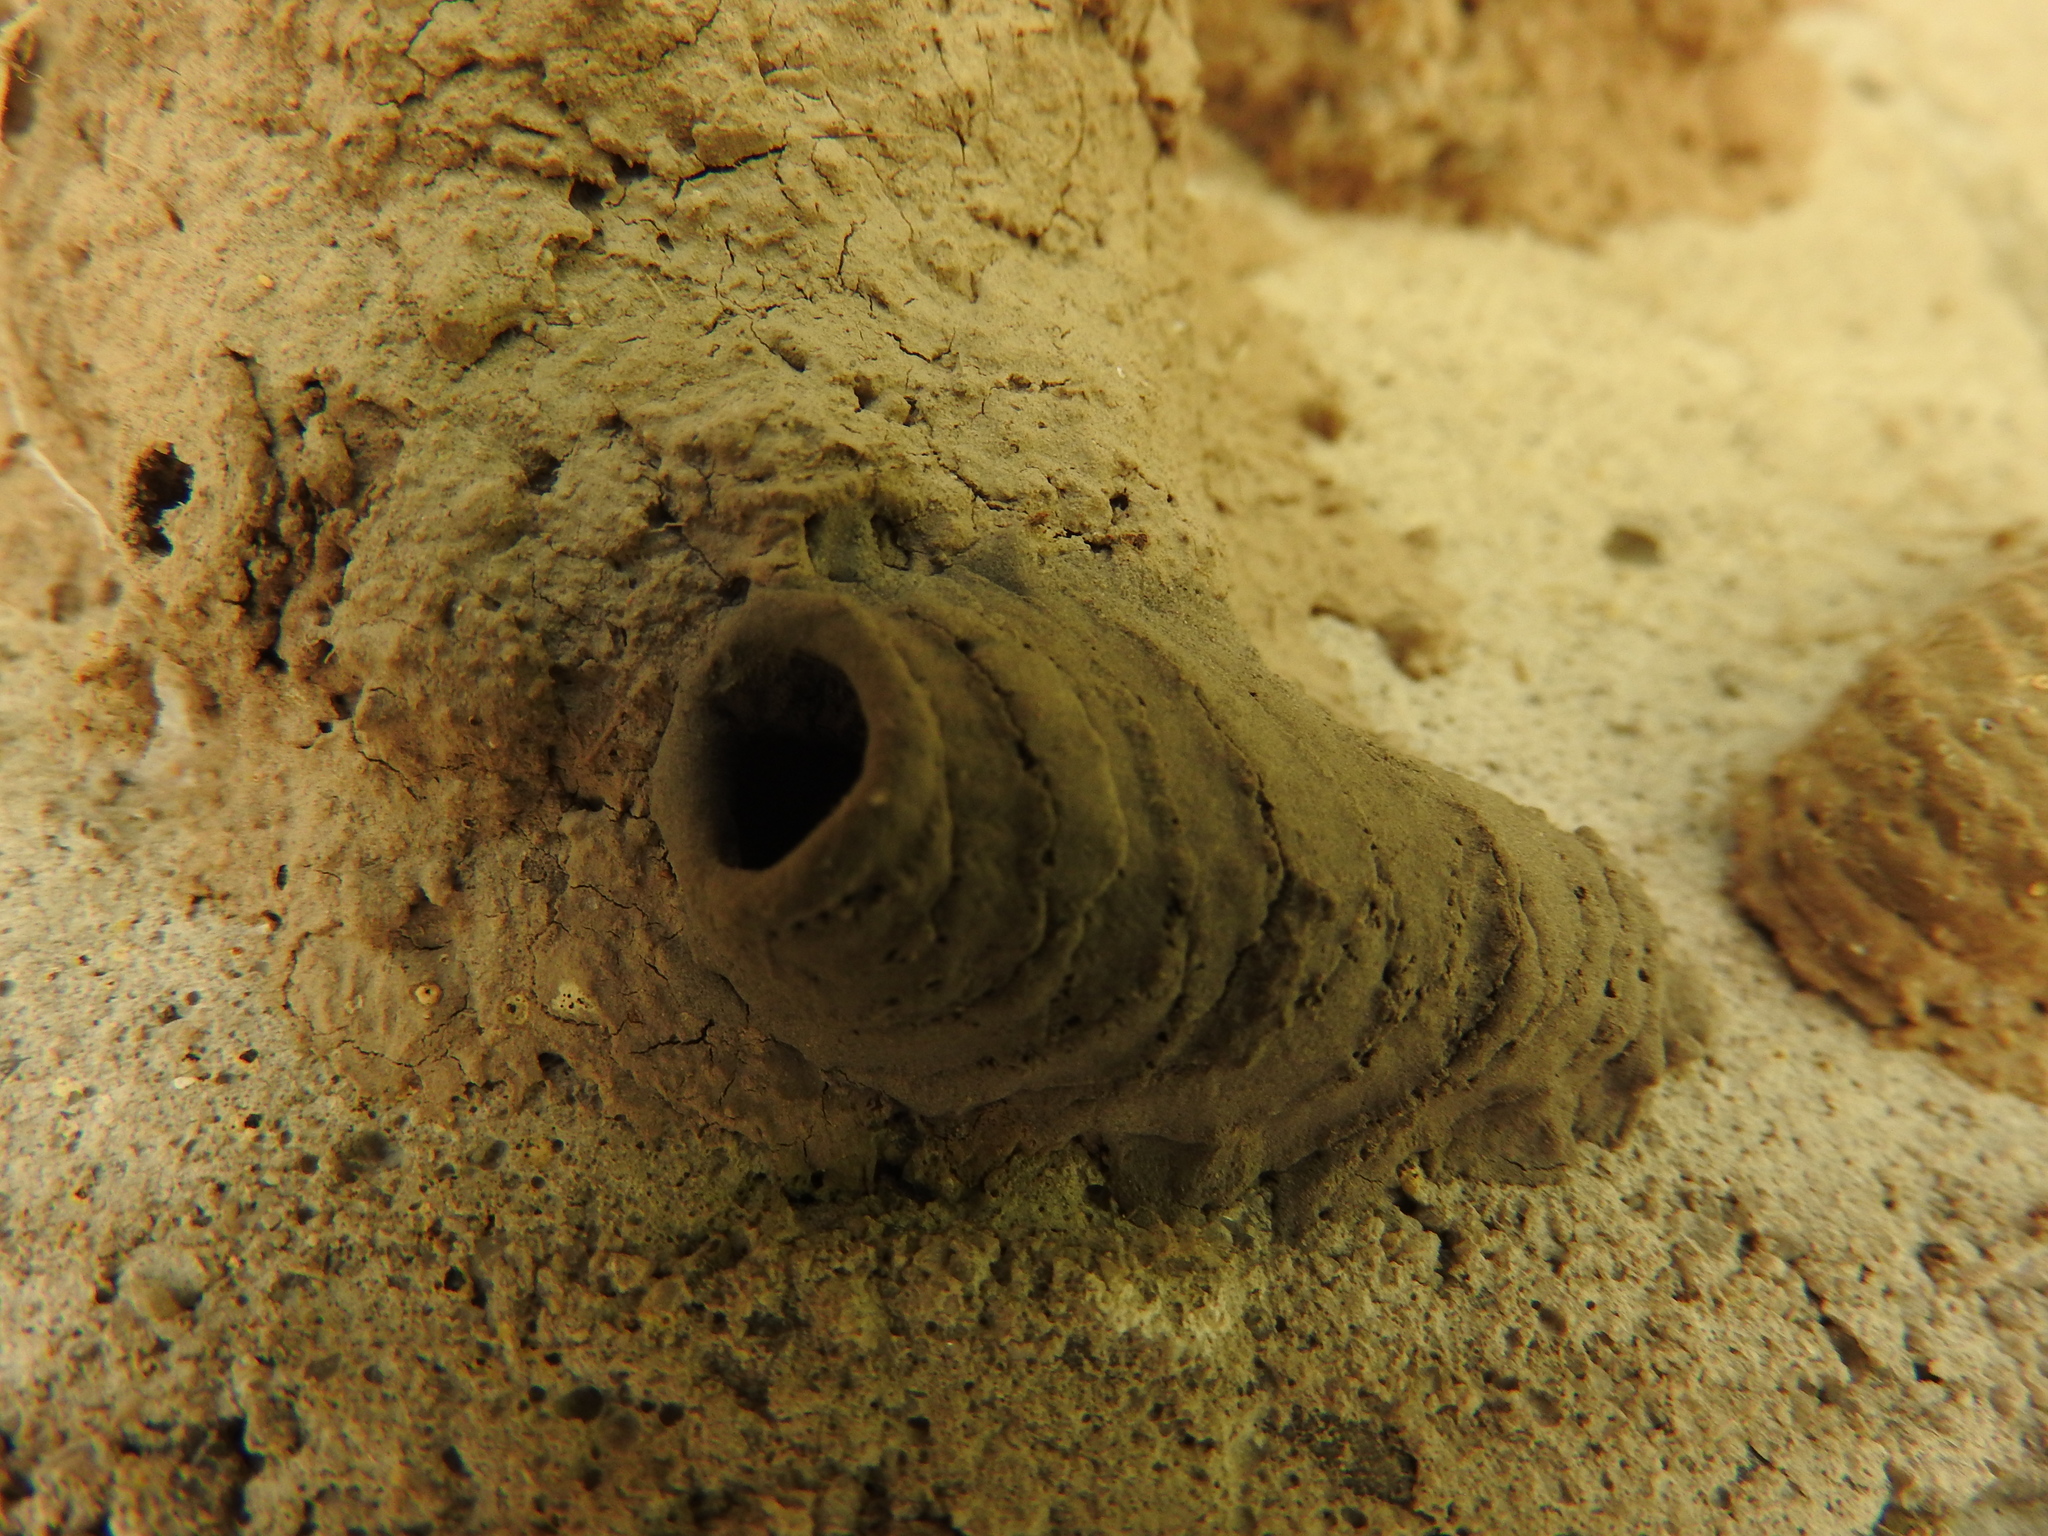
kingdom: Animalia
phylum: Arthropoda
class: Insecta
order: Hymenoptera
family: Sphecidae
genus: Sceliphron
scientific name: Sceliphron
